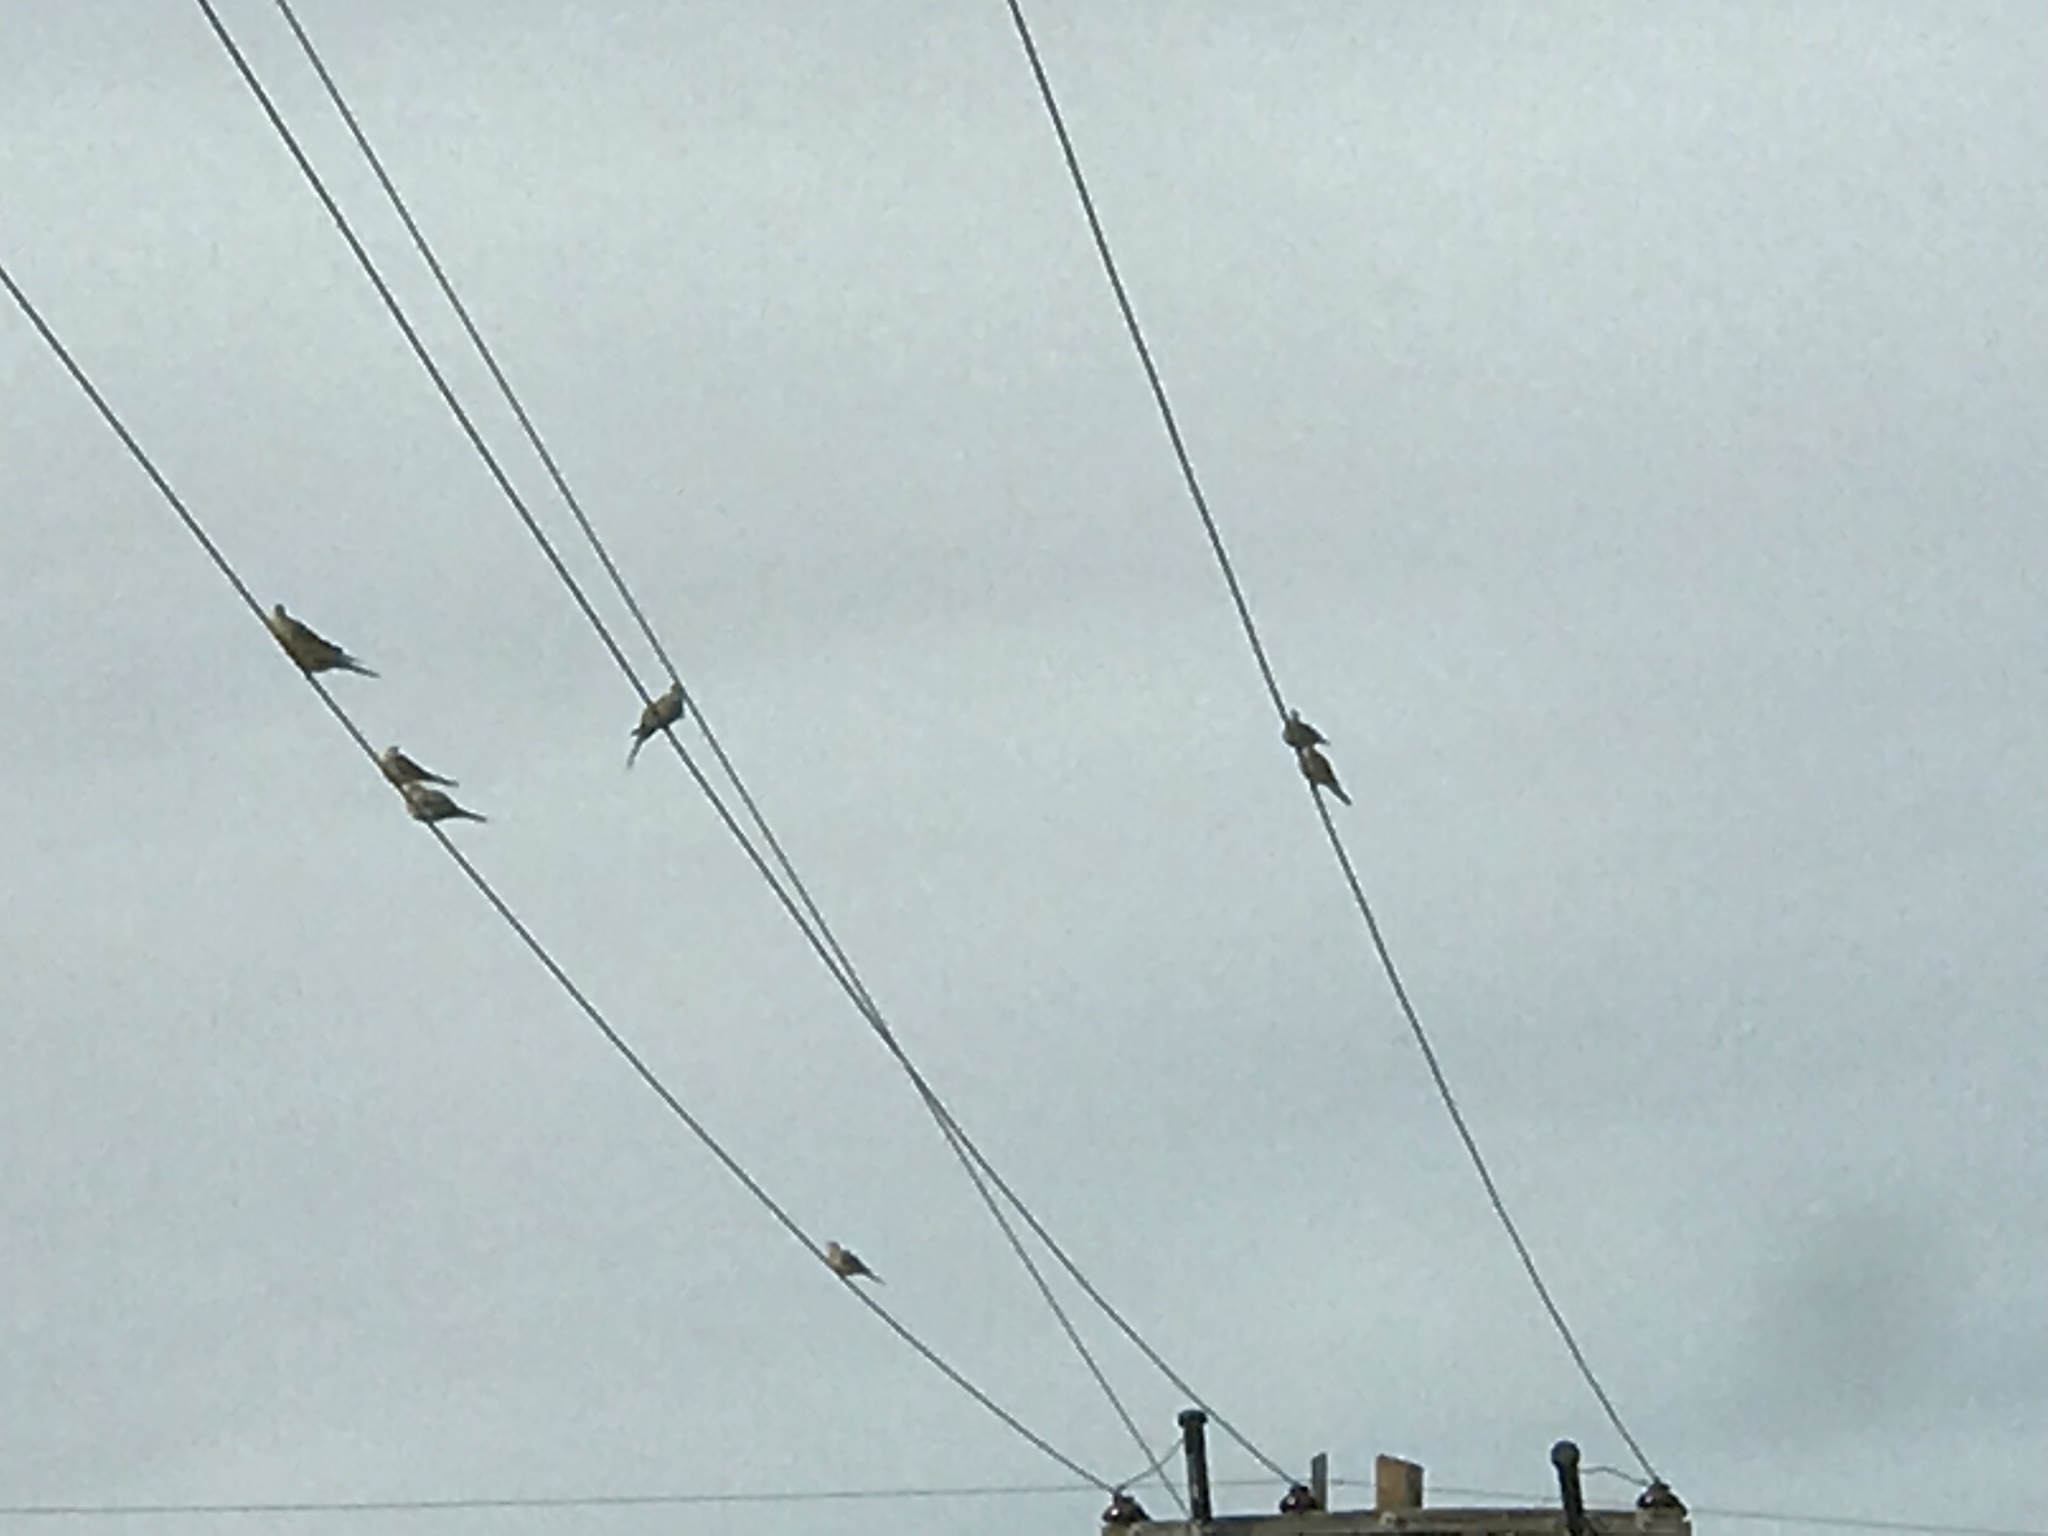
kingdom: Animalia
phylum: Chordata
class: Aves
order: Columbiformes
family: Columbidae
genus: Zenaida
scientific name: Zenaida macroura
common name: Mourning dove
